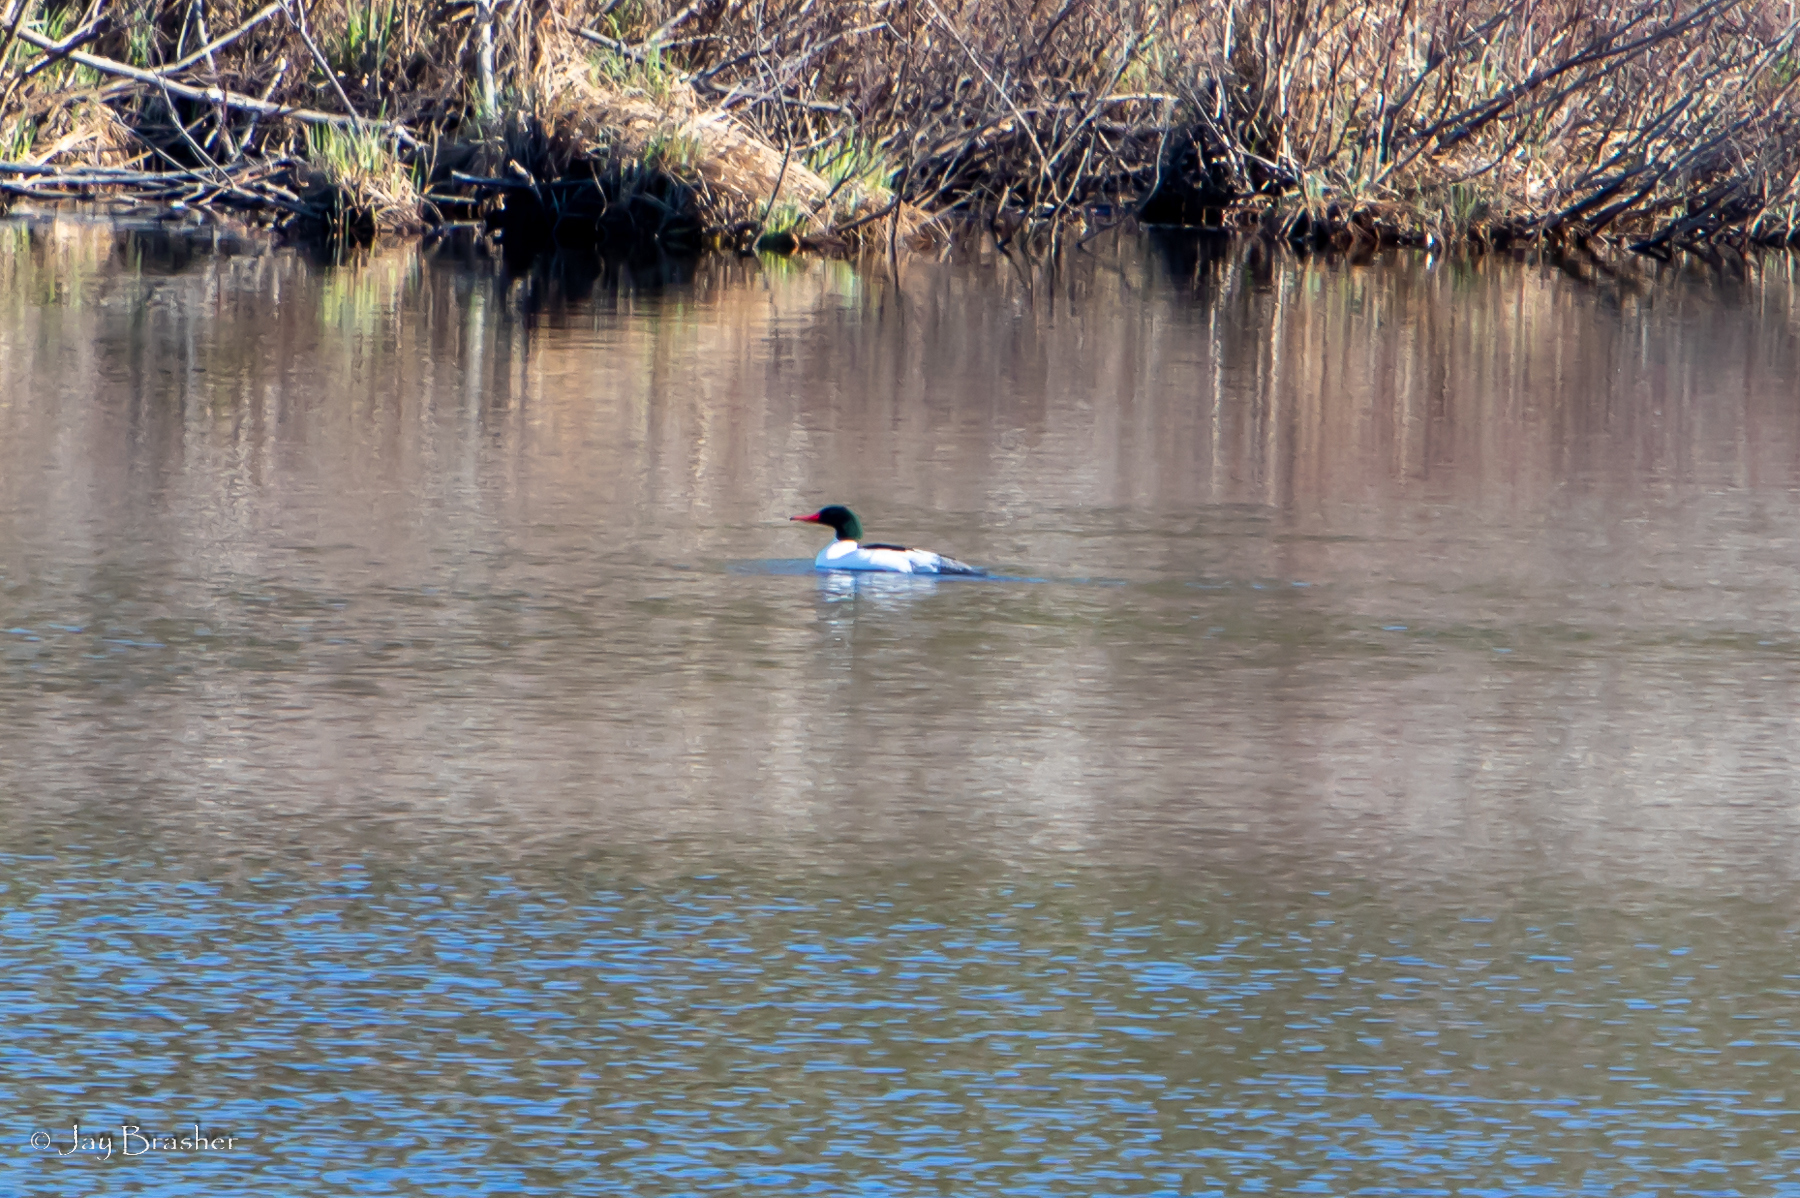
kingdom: Animalia
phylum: Chordata
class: Aves
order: Anseriformes
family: Anatidae
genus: Mergus
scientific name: Mergus merganser
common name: Common merganser
